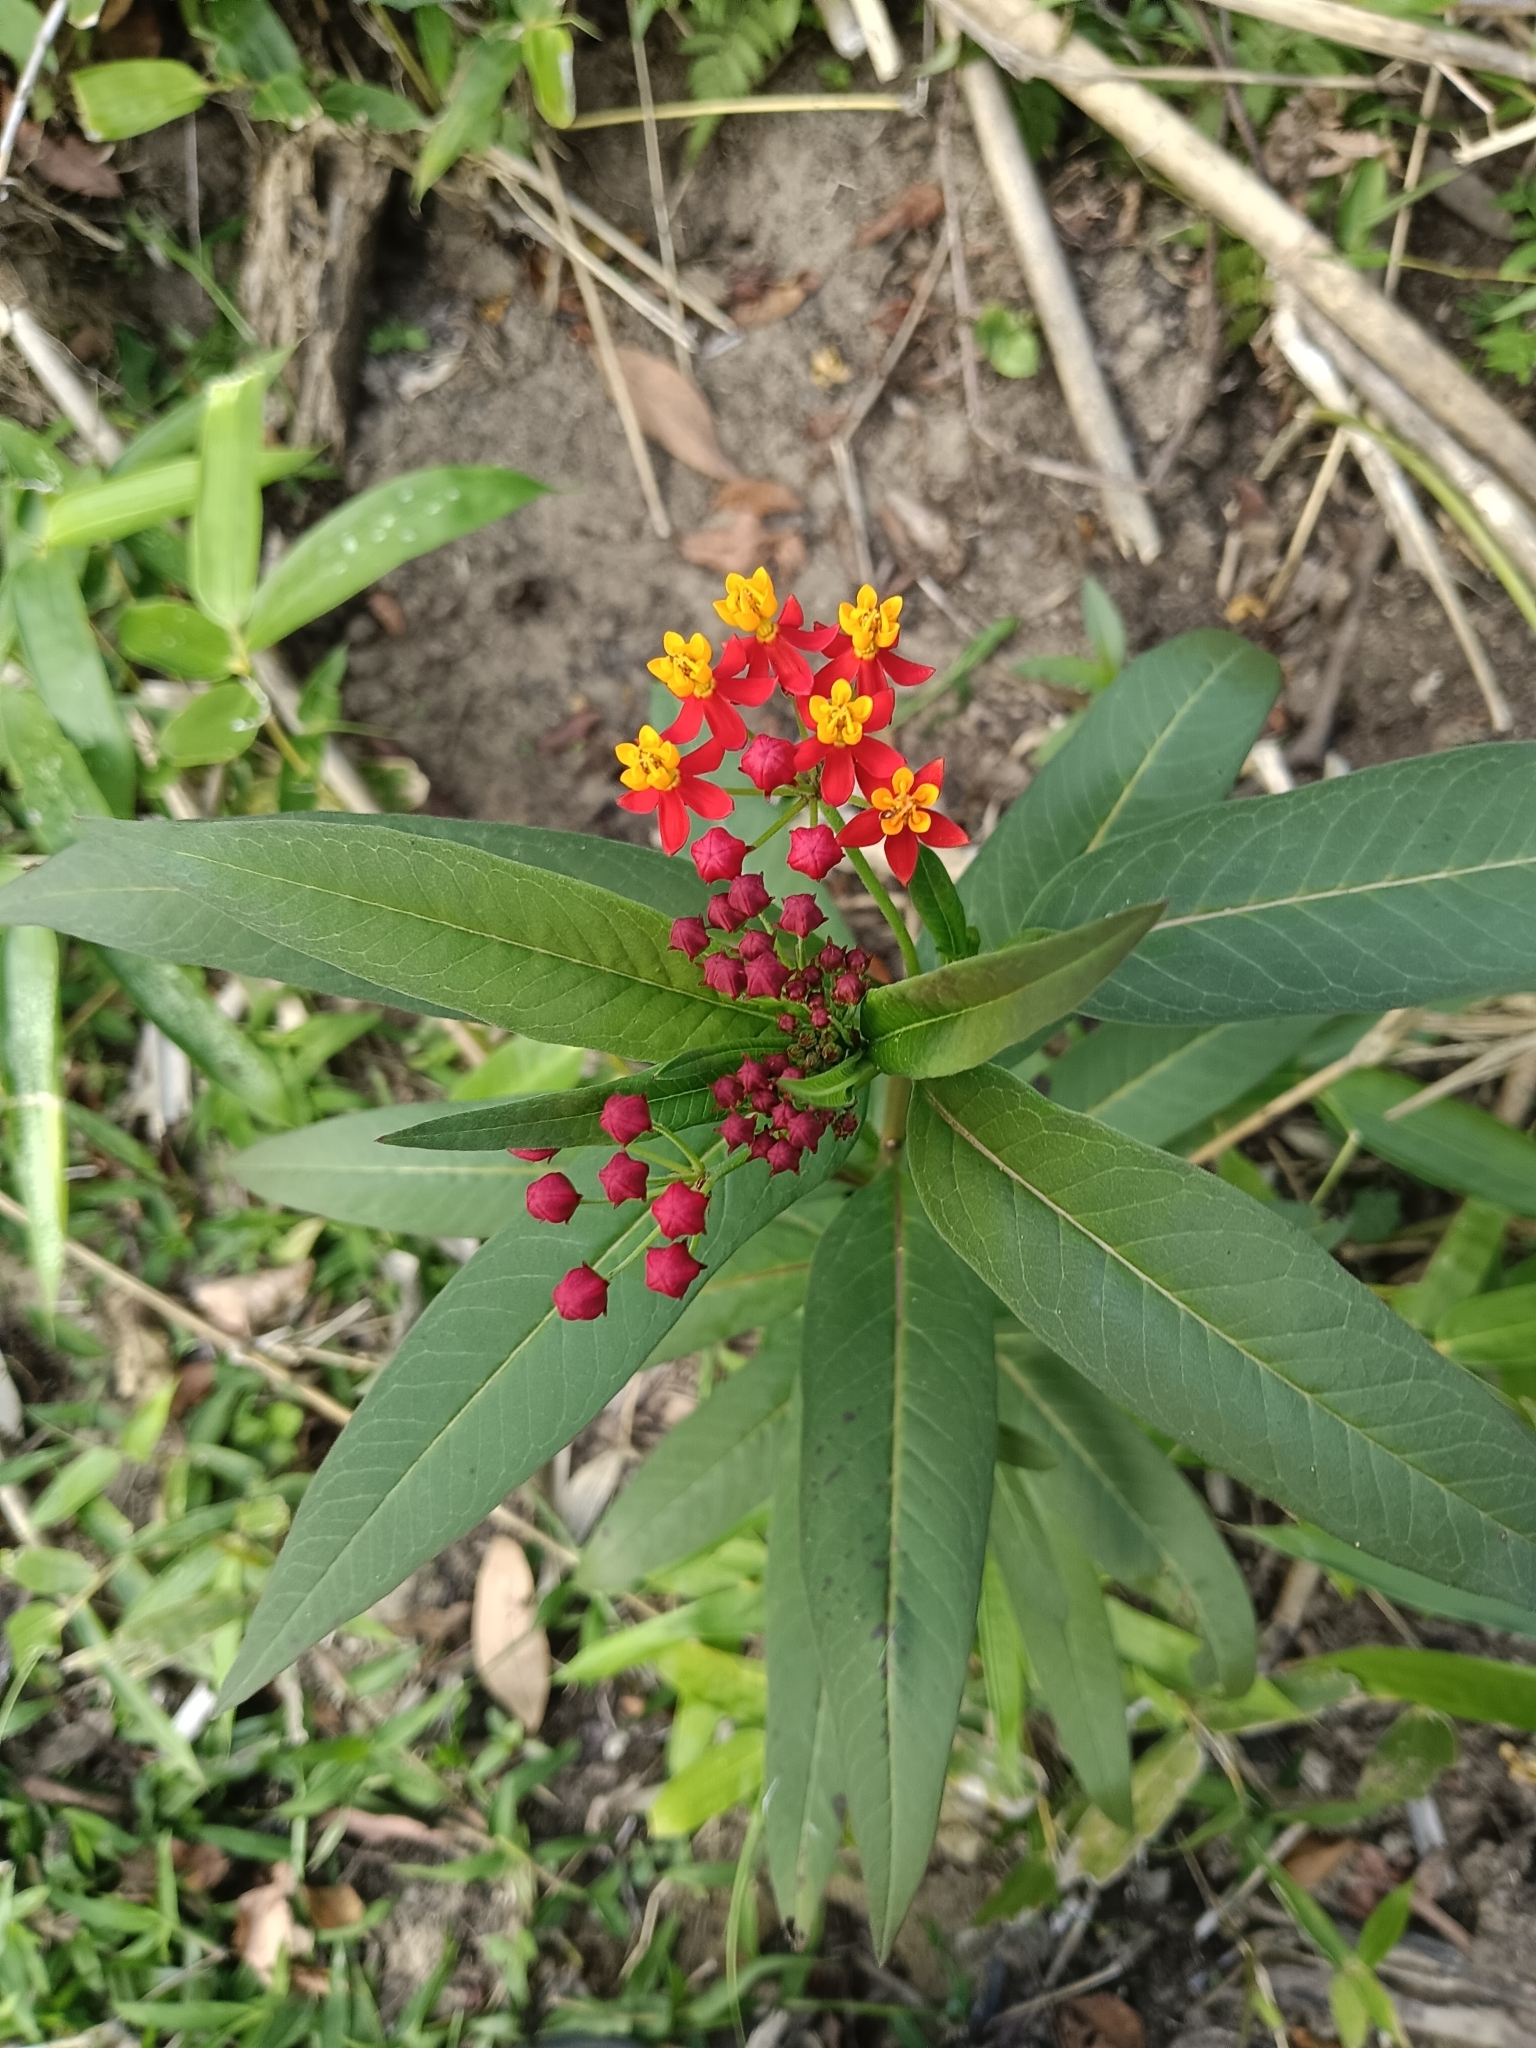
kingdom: Plantae
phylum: Tracheophyta
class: Magnoliopsida
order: Gentianales
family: Apocynaceae
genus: Asclepias
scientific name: Asclepias curassavica
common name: Bloodflower
